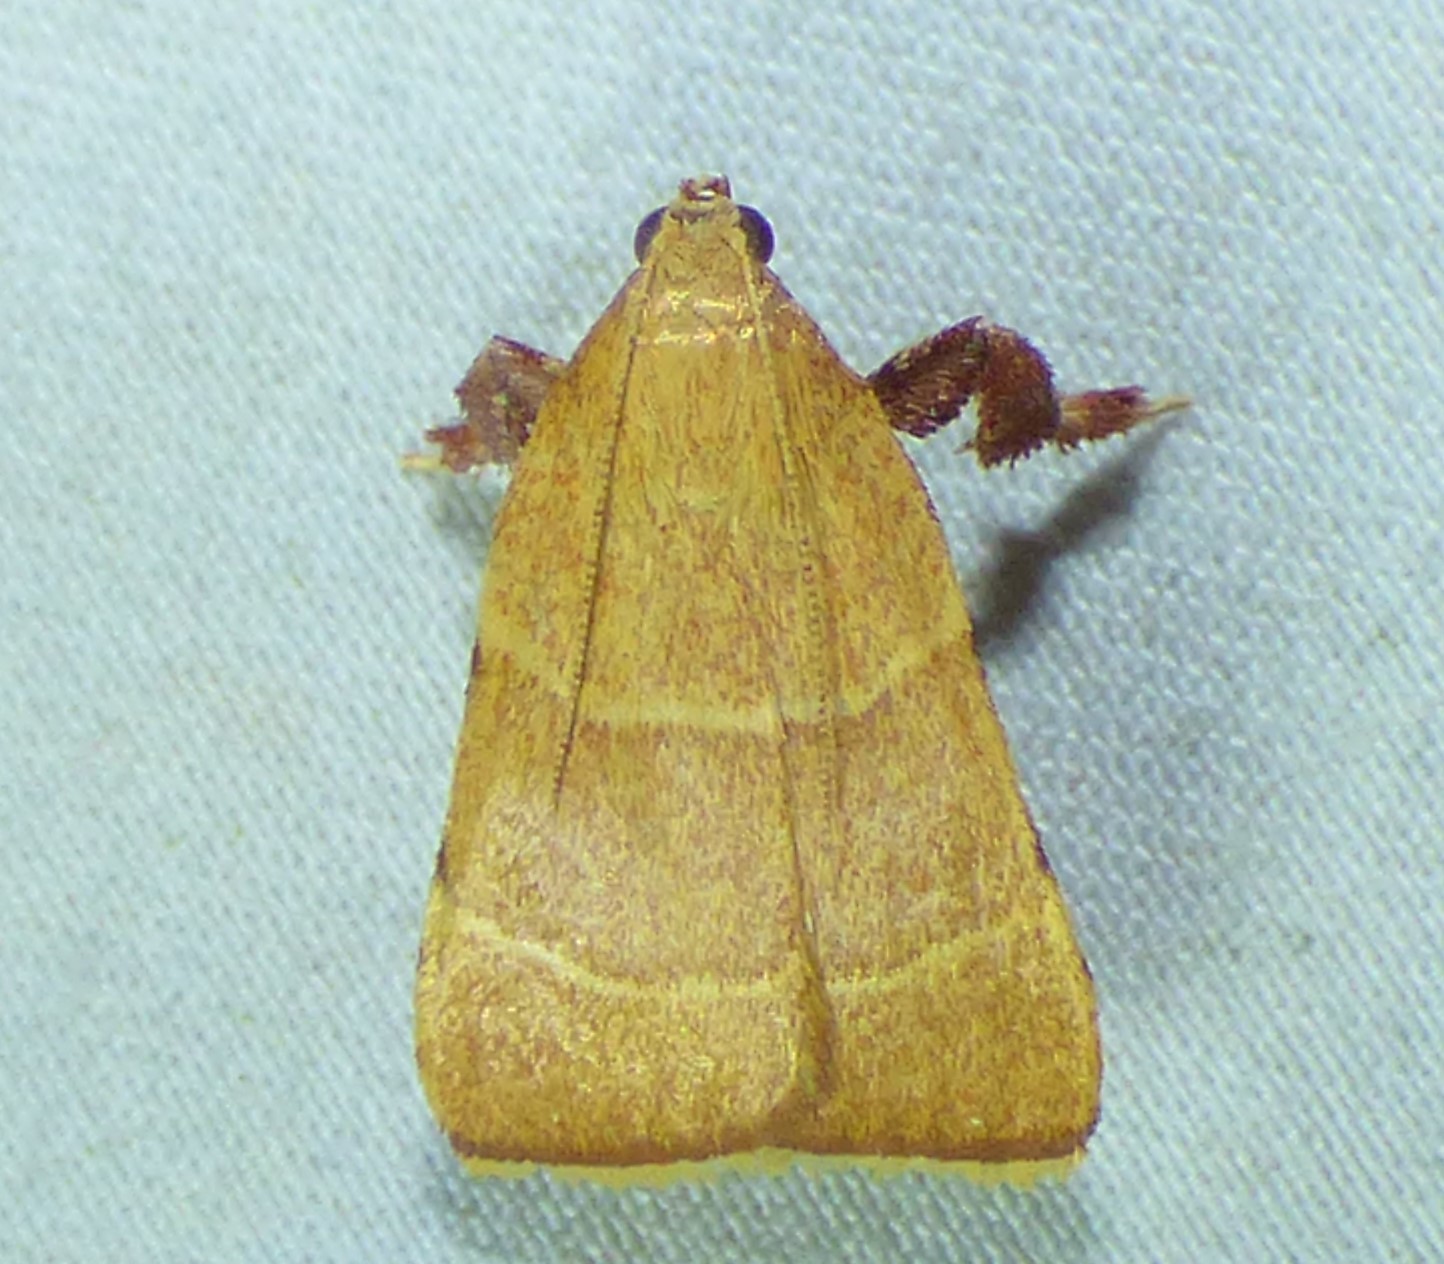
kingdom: Animalia
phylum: Arthropoda
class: Insecta
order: Lepidoptera
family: Pyralidae
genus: Parachma
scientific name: Parachma ochracealis
